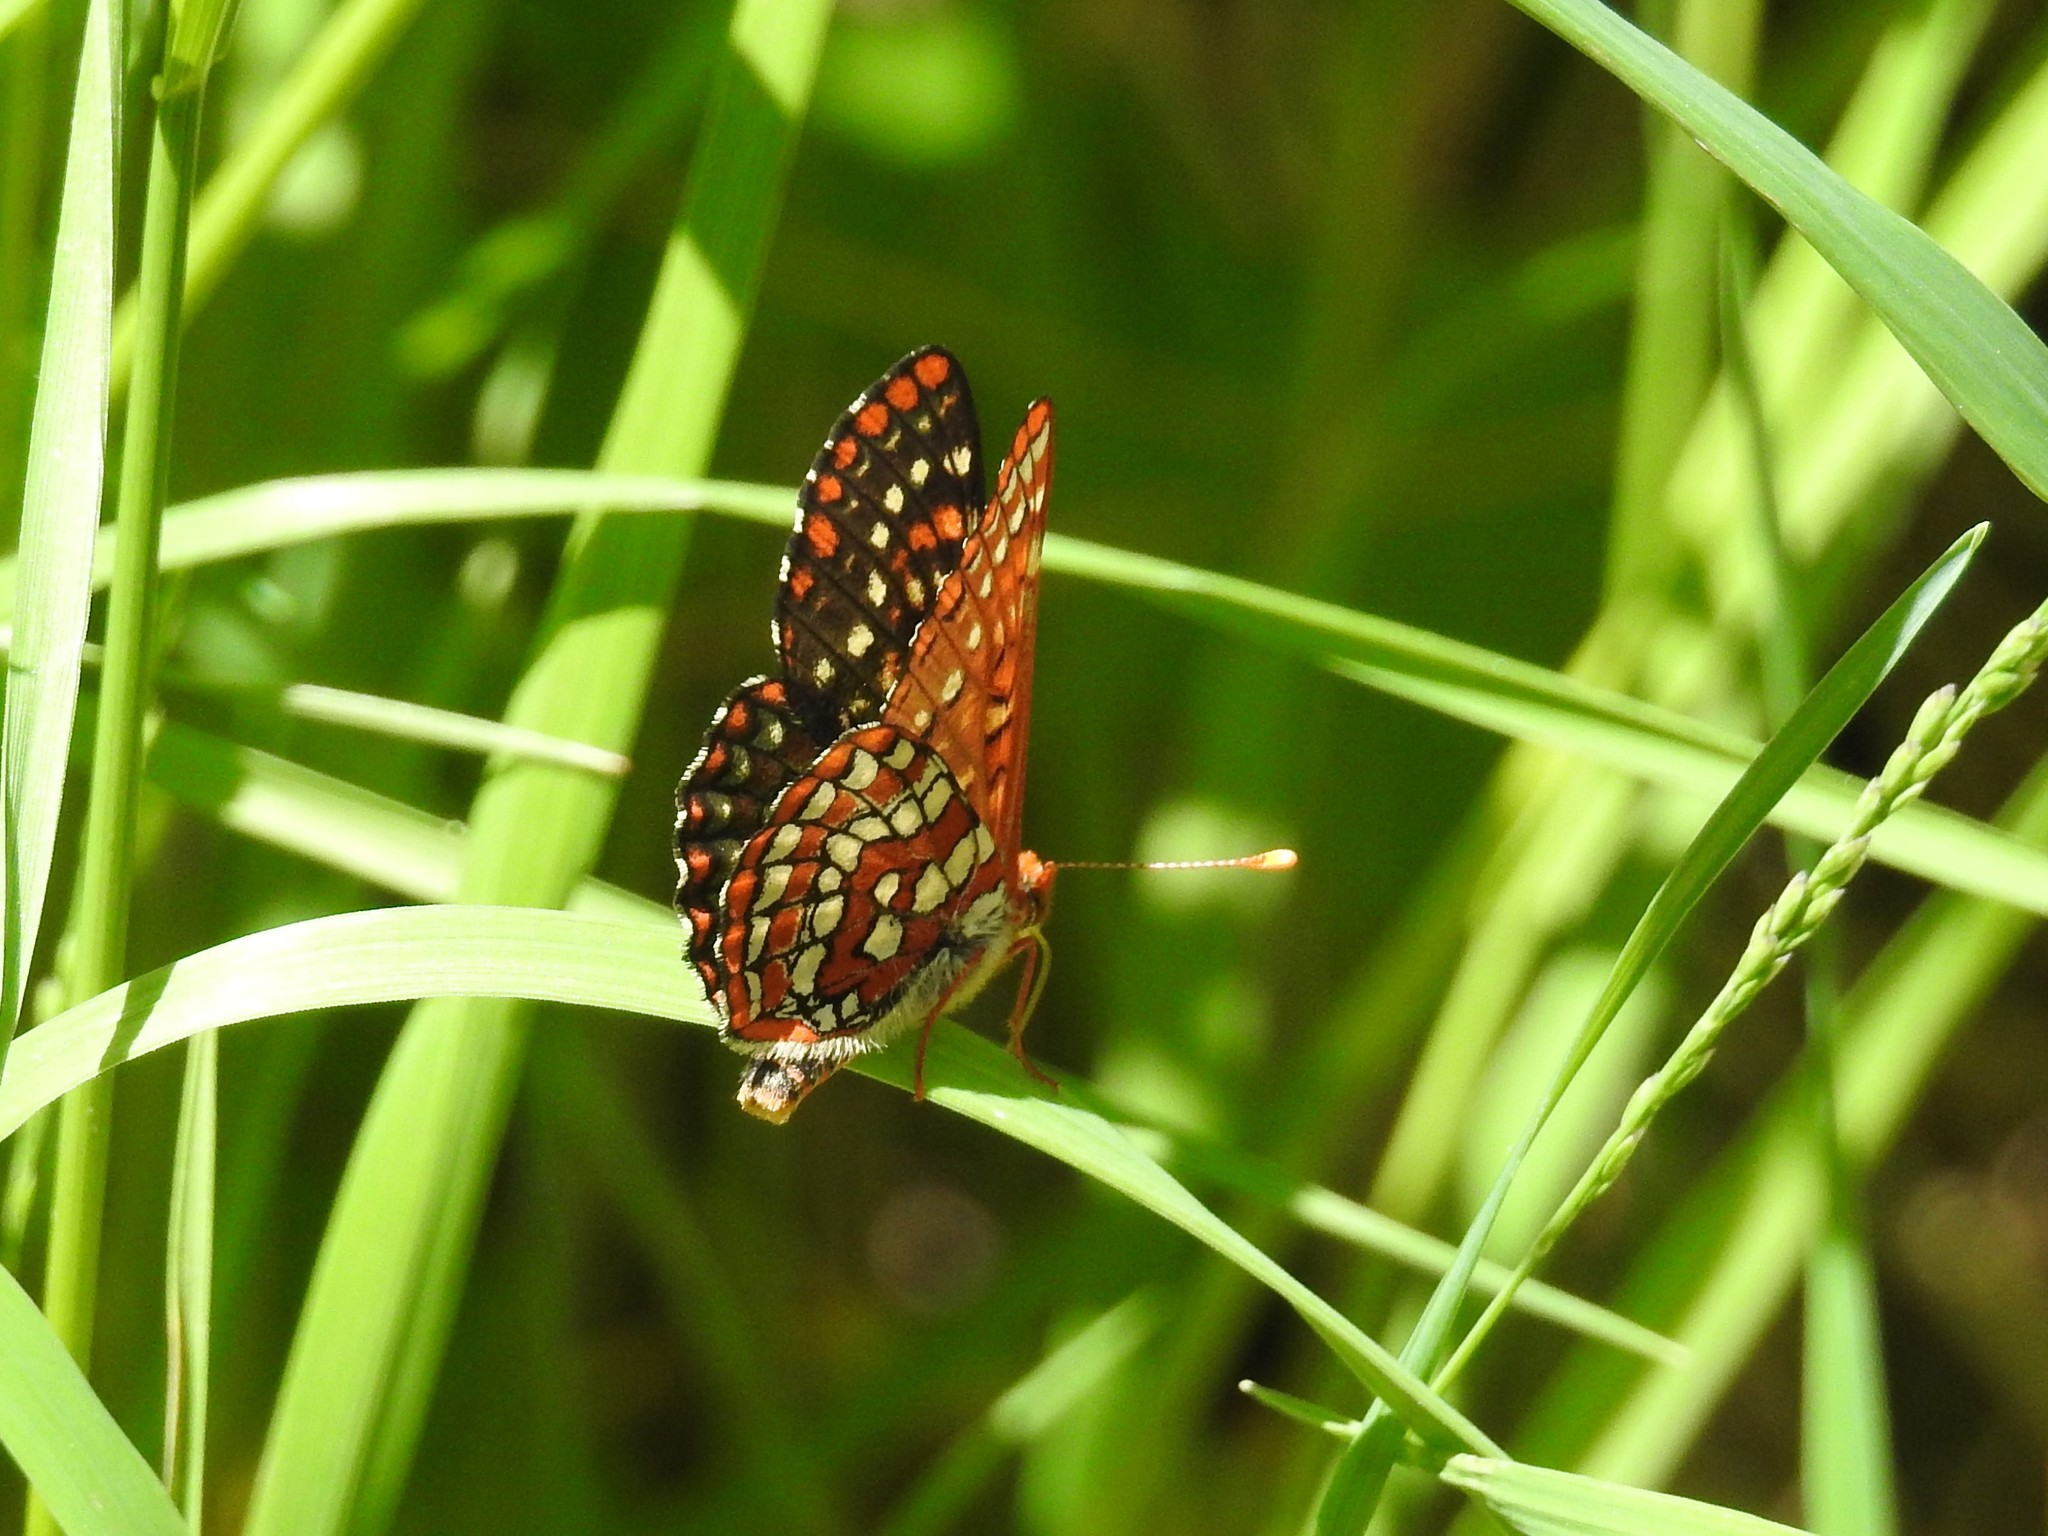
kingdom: Animalia
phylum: Arthropoda
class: Insecta
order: Lepidoptera
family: Nymphalidae
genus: Occidryas
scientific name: Occidryas anicia
